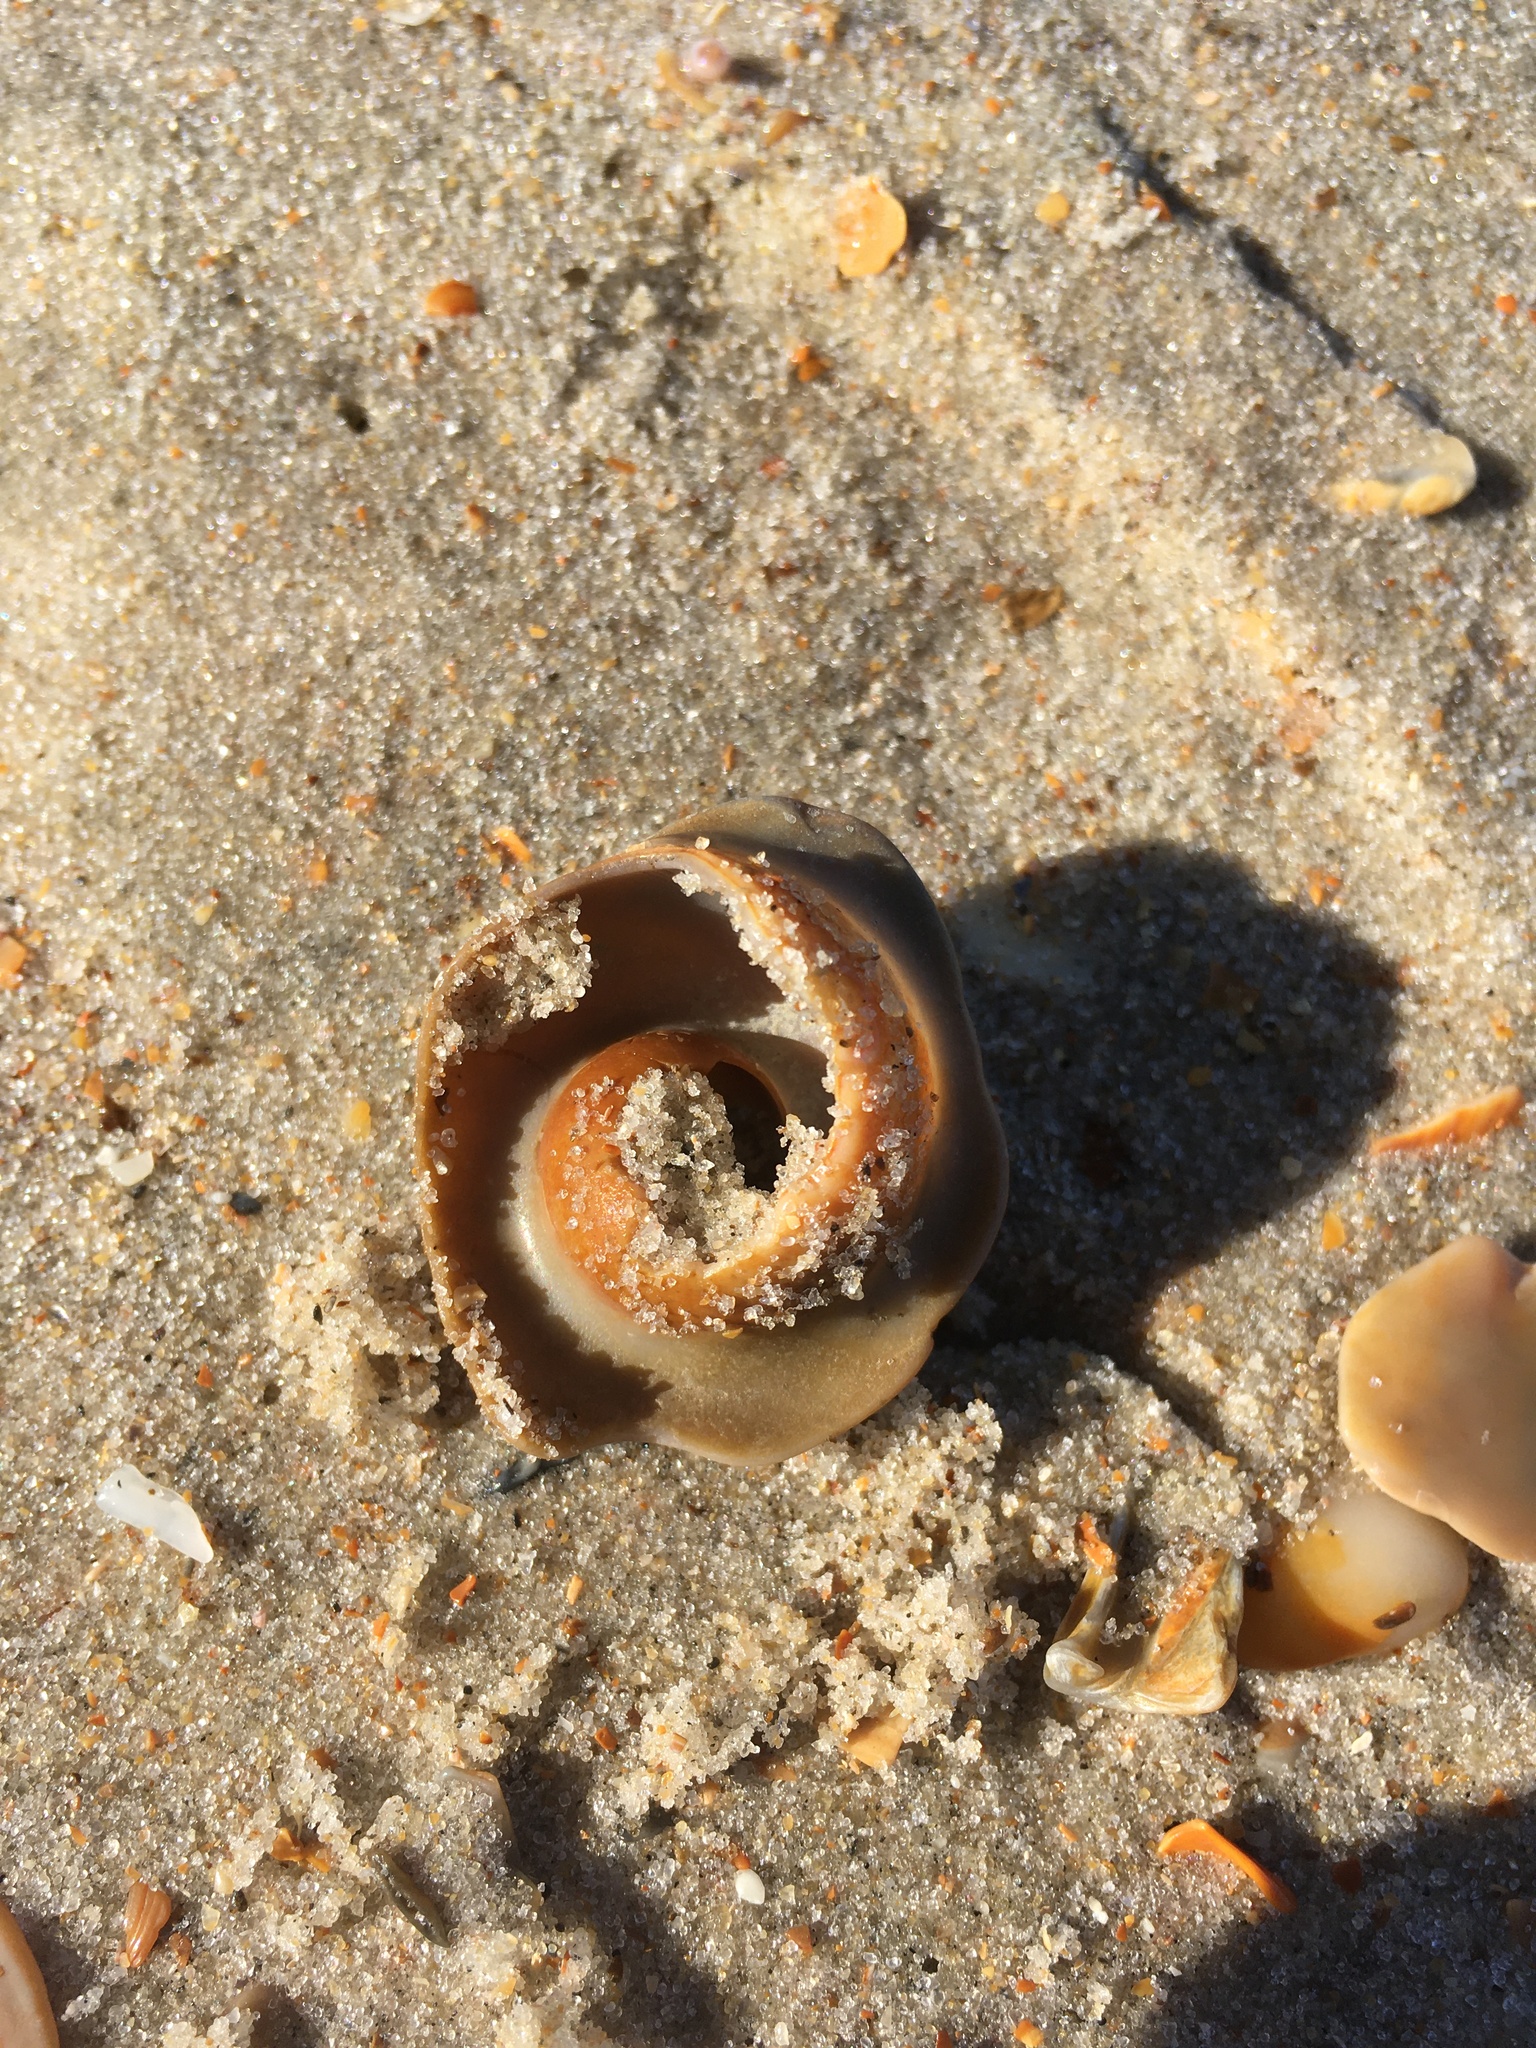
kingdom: Animalia
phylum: Mollusca
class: Gastropoda
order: Littorinimorpha
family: Naticidae
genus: Neverita
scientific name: Neverita duplicata
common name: Lobed moonsnail
